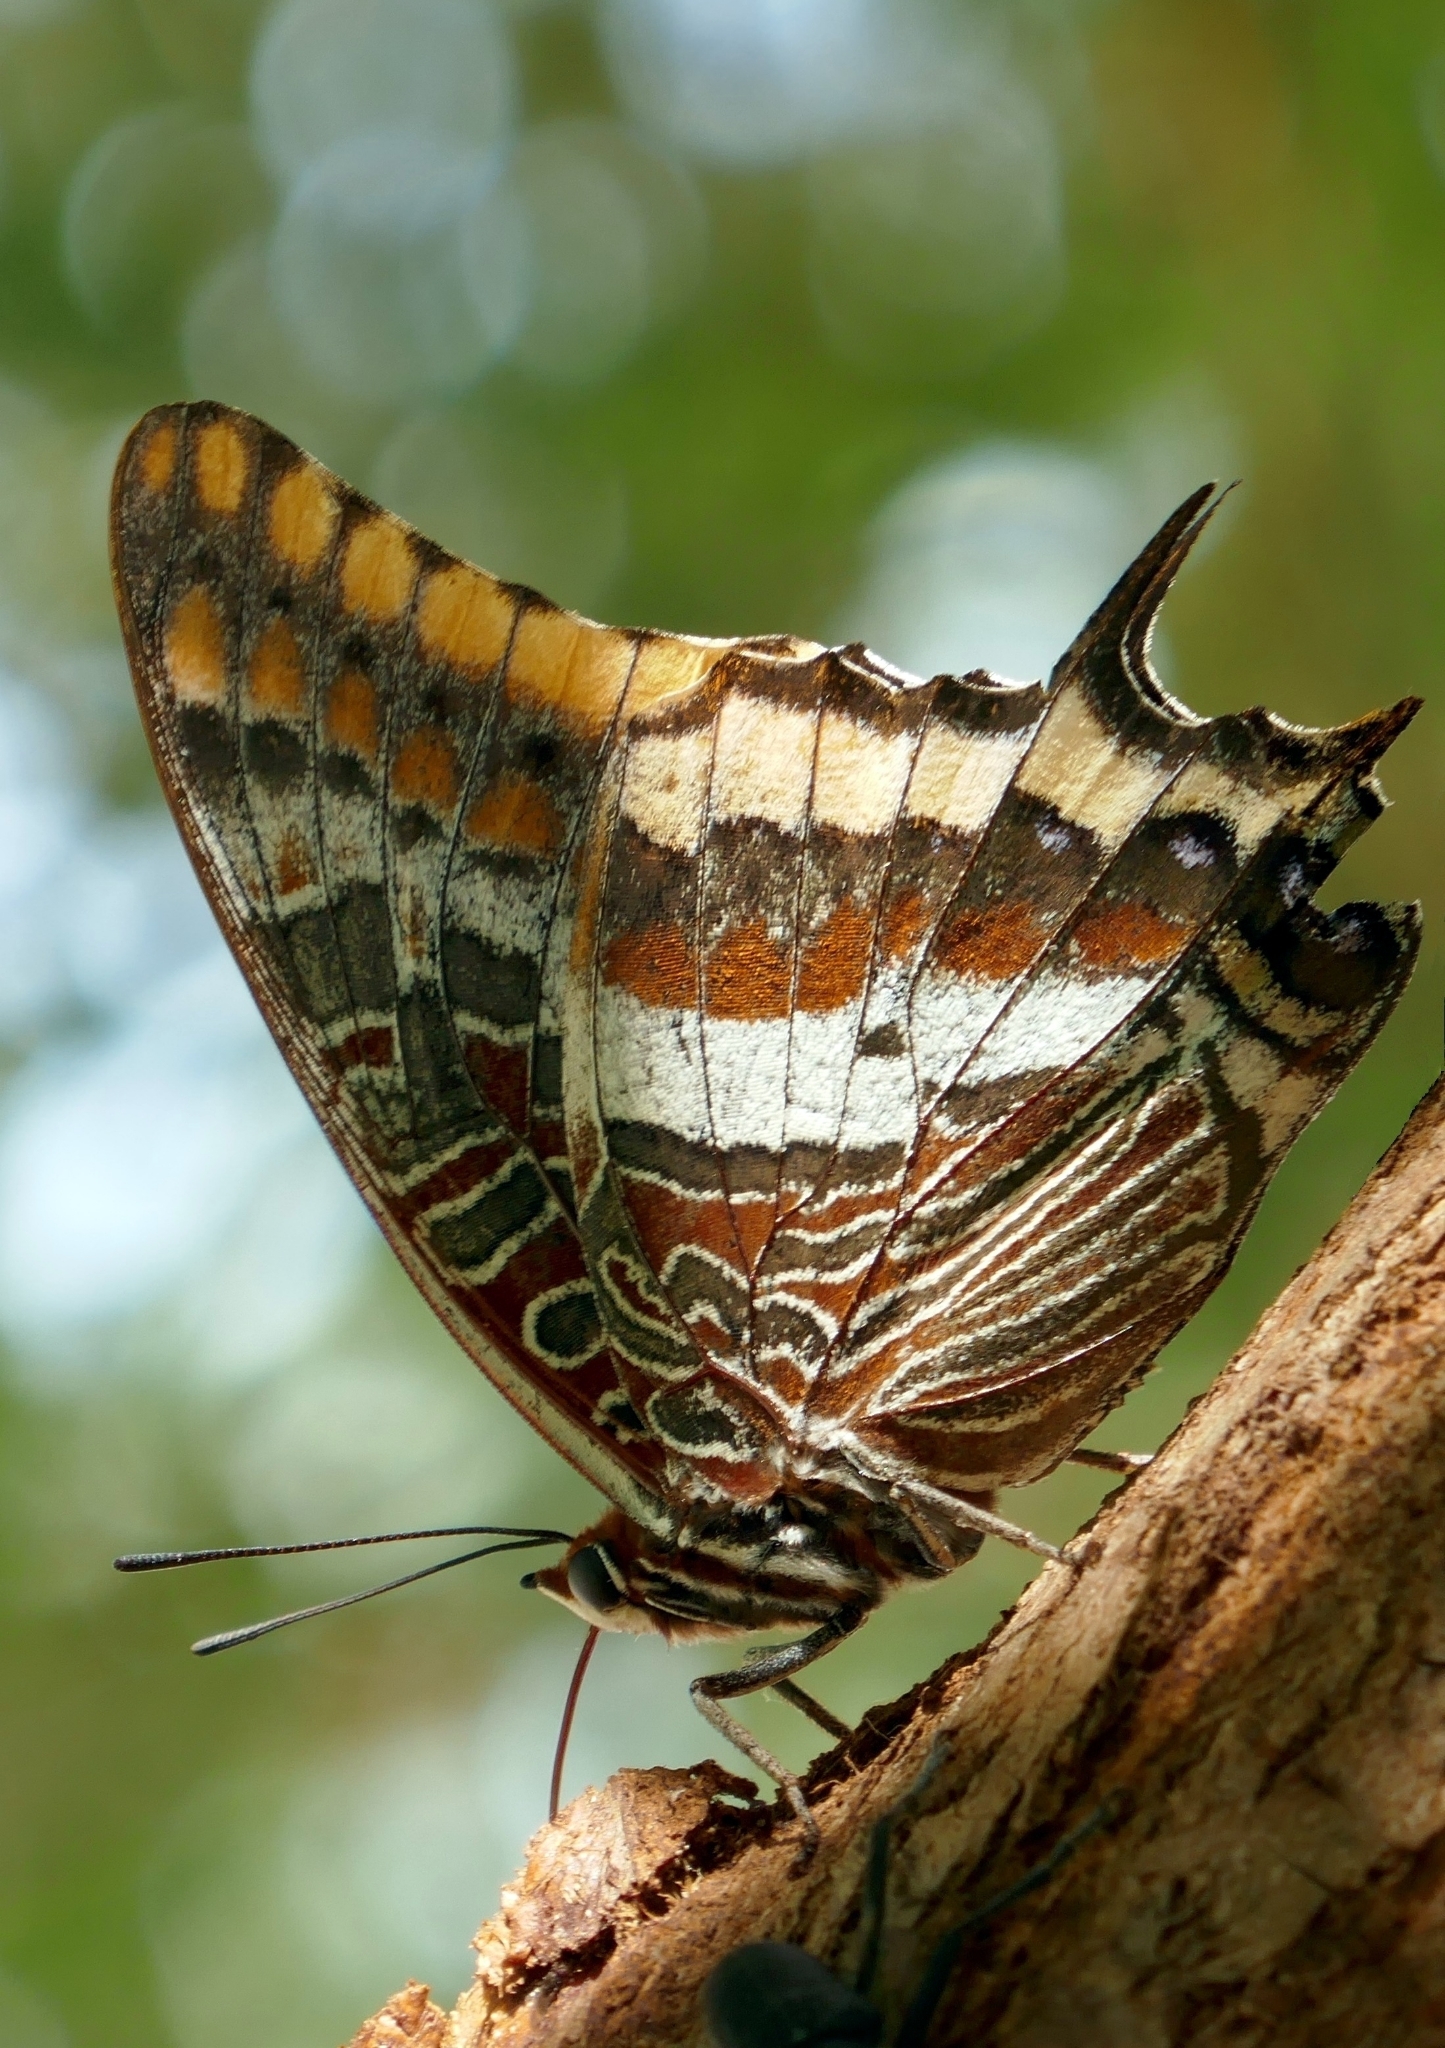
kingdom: Animalia
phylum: Arthropoda
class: Insecta
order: Lepidoptera
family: Nymphalidae
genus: Charaxes
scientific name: Charaxes jasius
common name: Two tailed pasha
